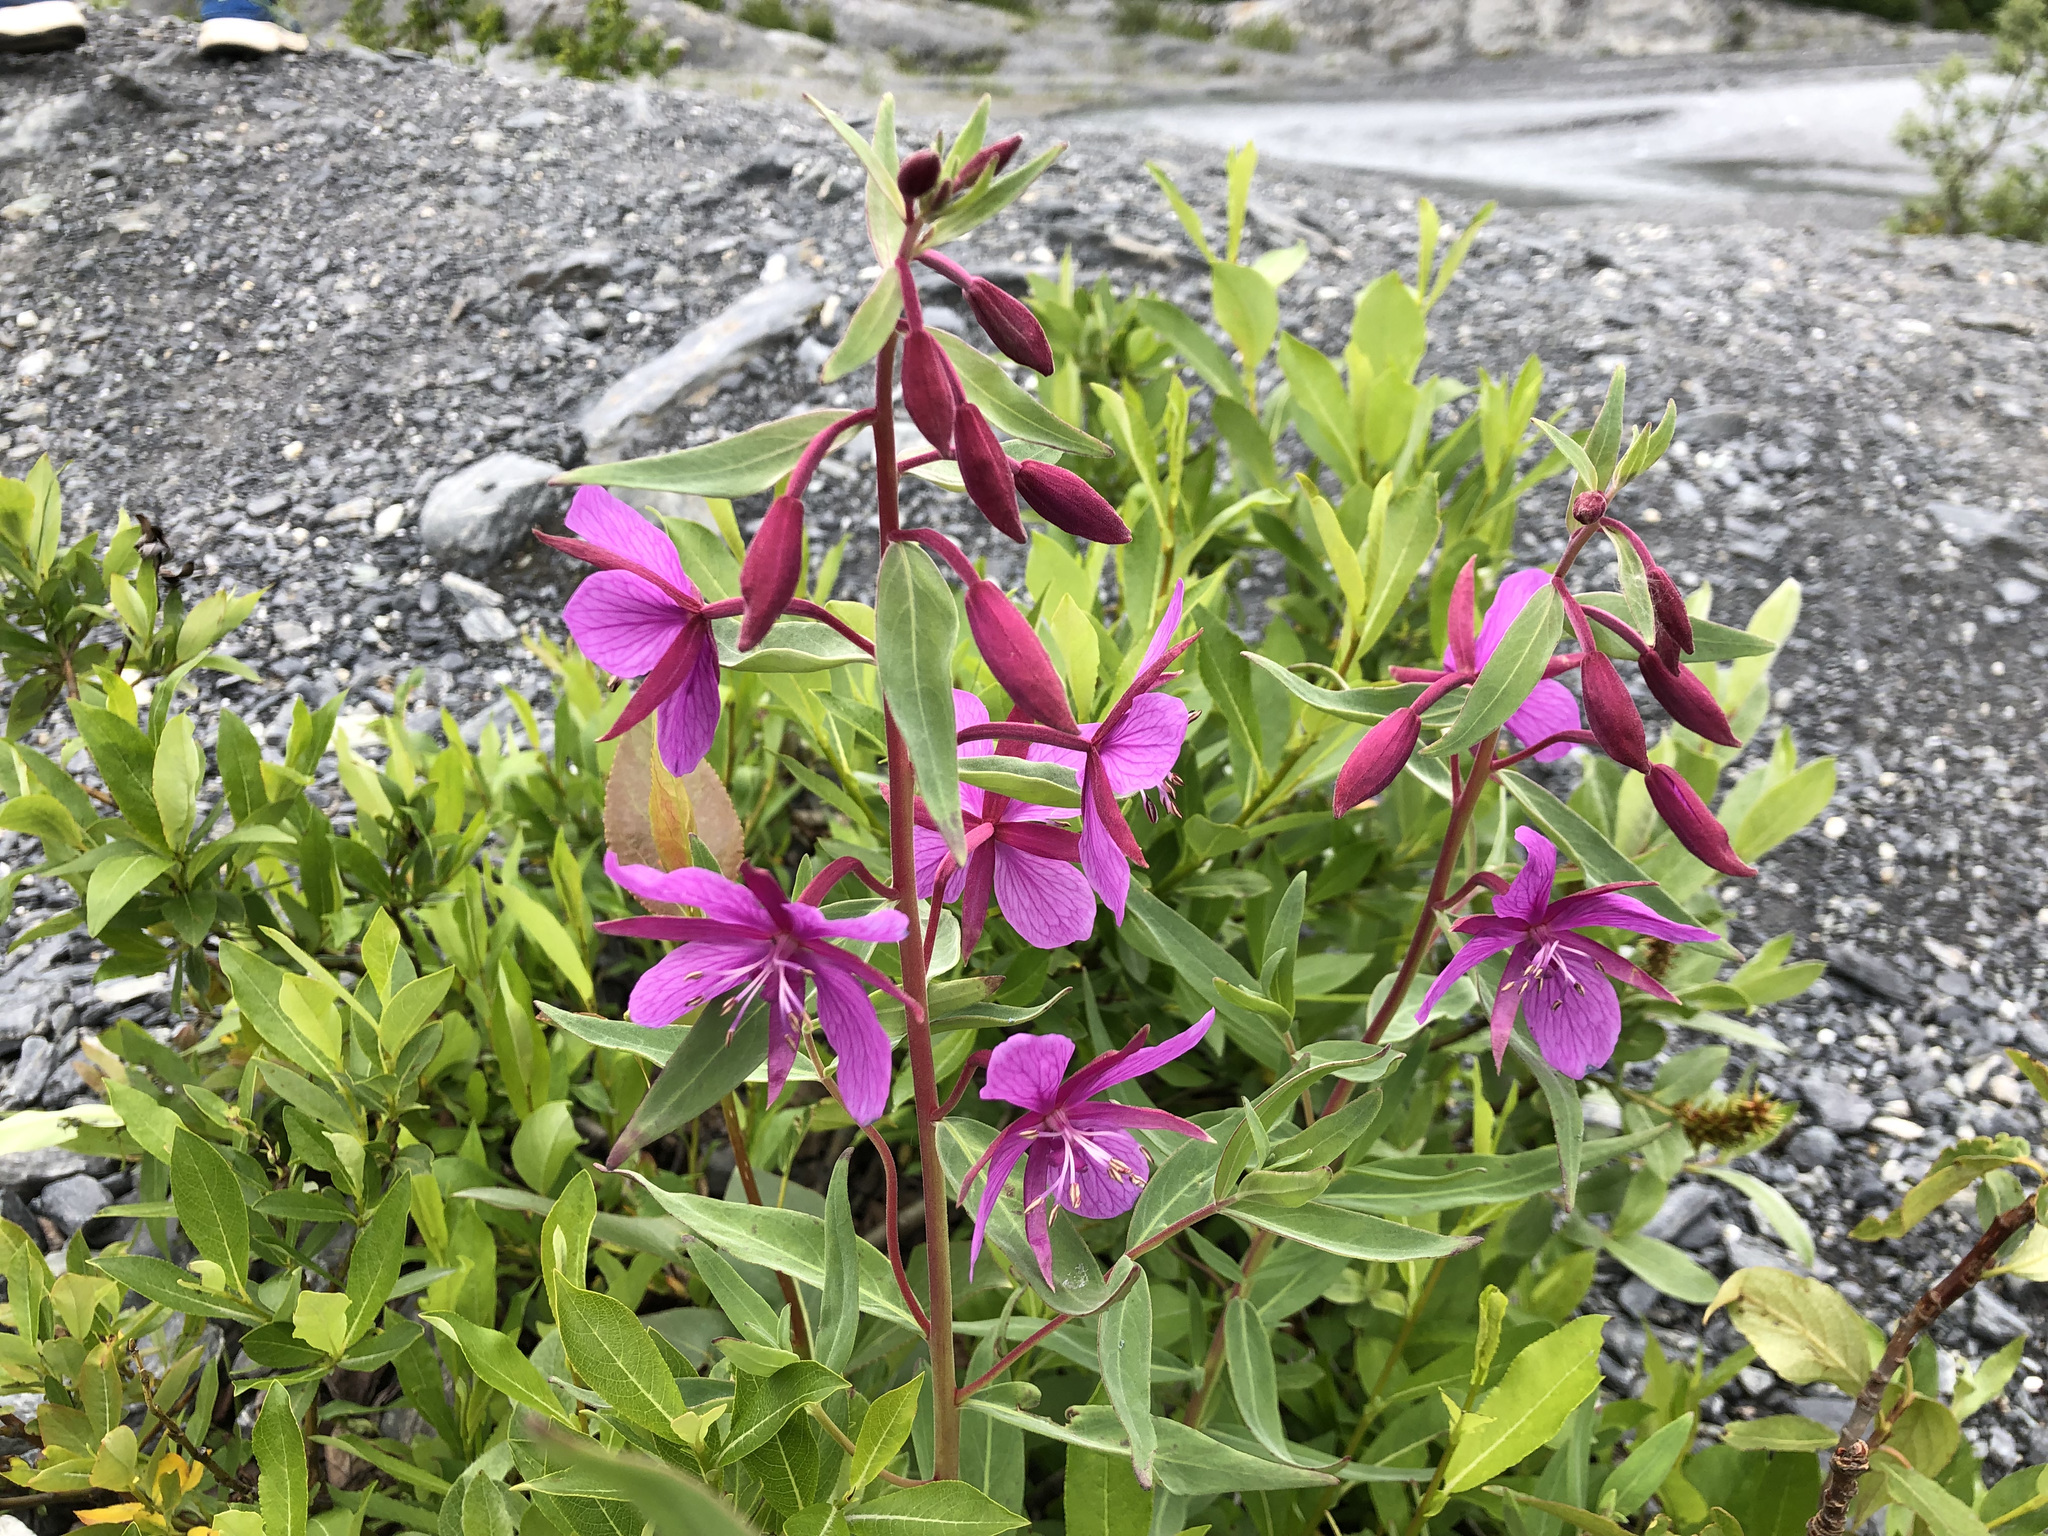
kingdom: Plantae
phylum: Tracheophyta
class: Magnoliopsida
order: Myrtales
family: Onagraceae
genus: Chamaenerion
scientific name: Chamaenerion latifolium
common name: Dwarf fireweed
